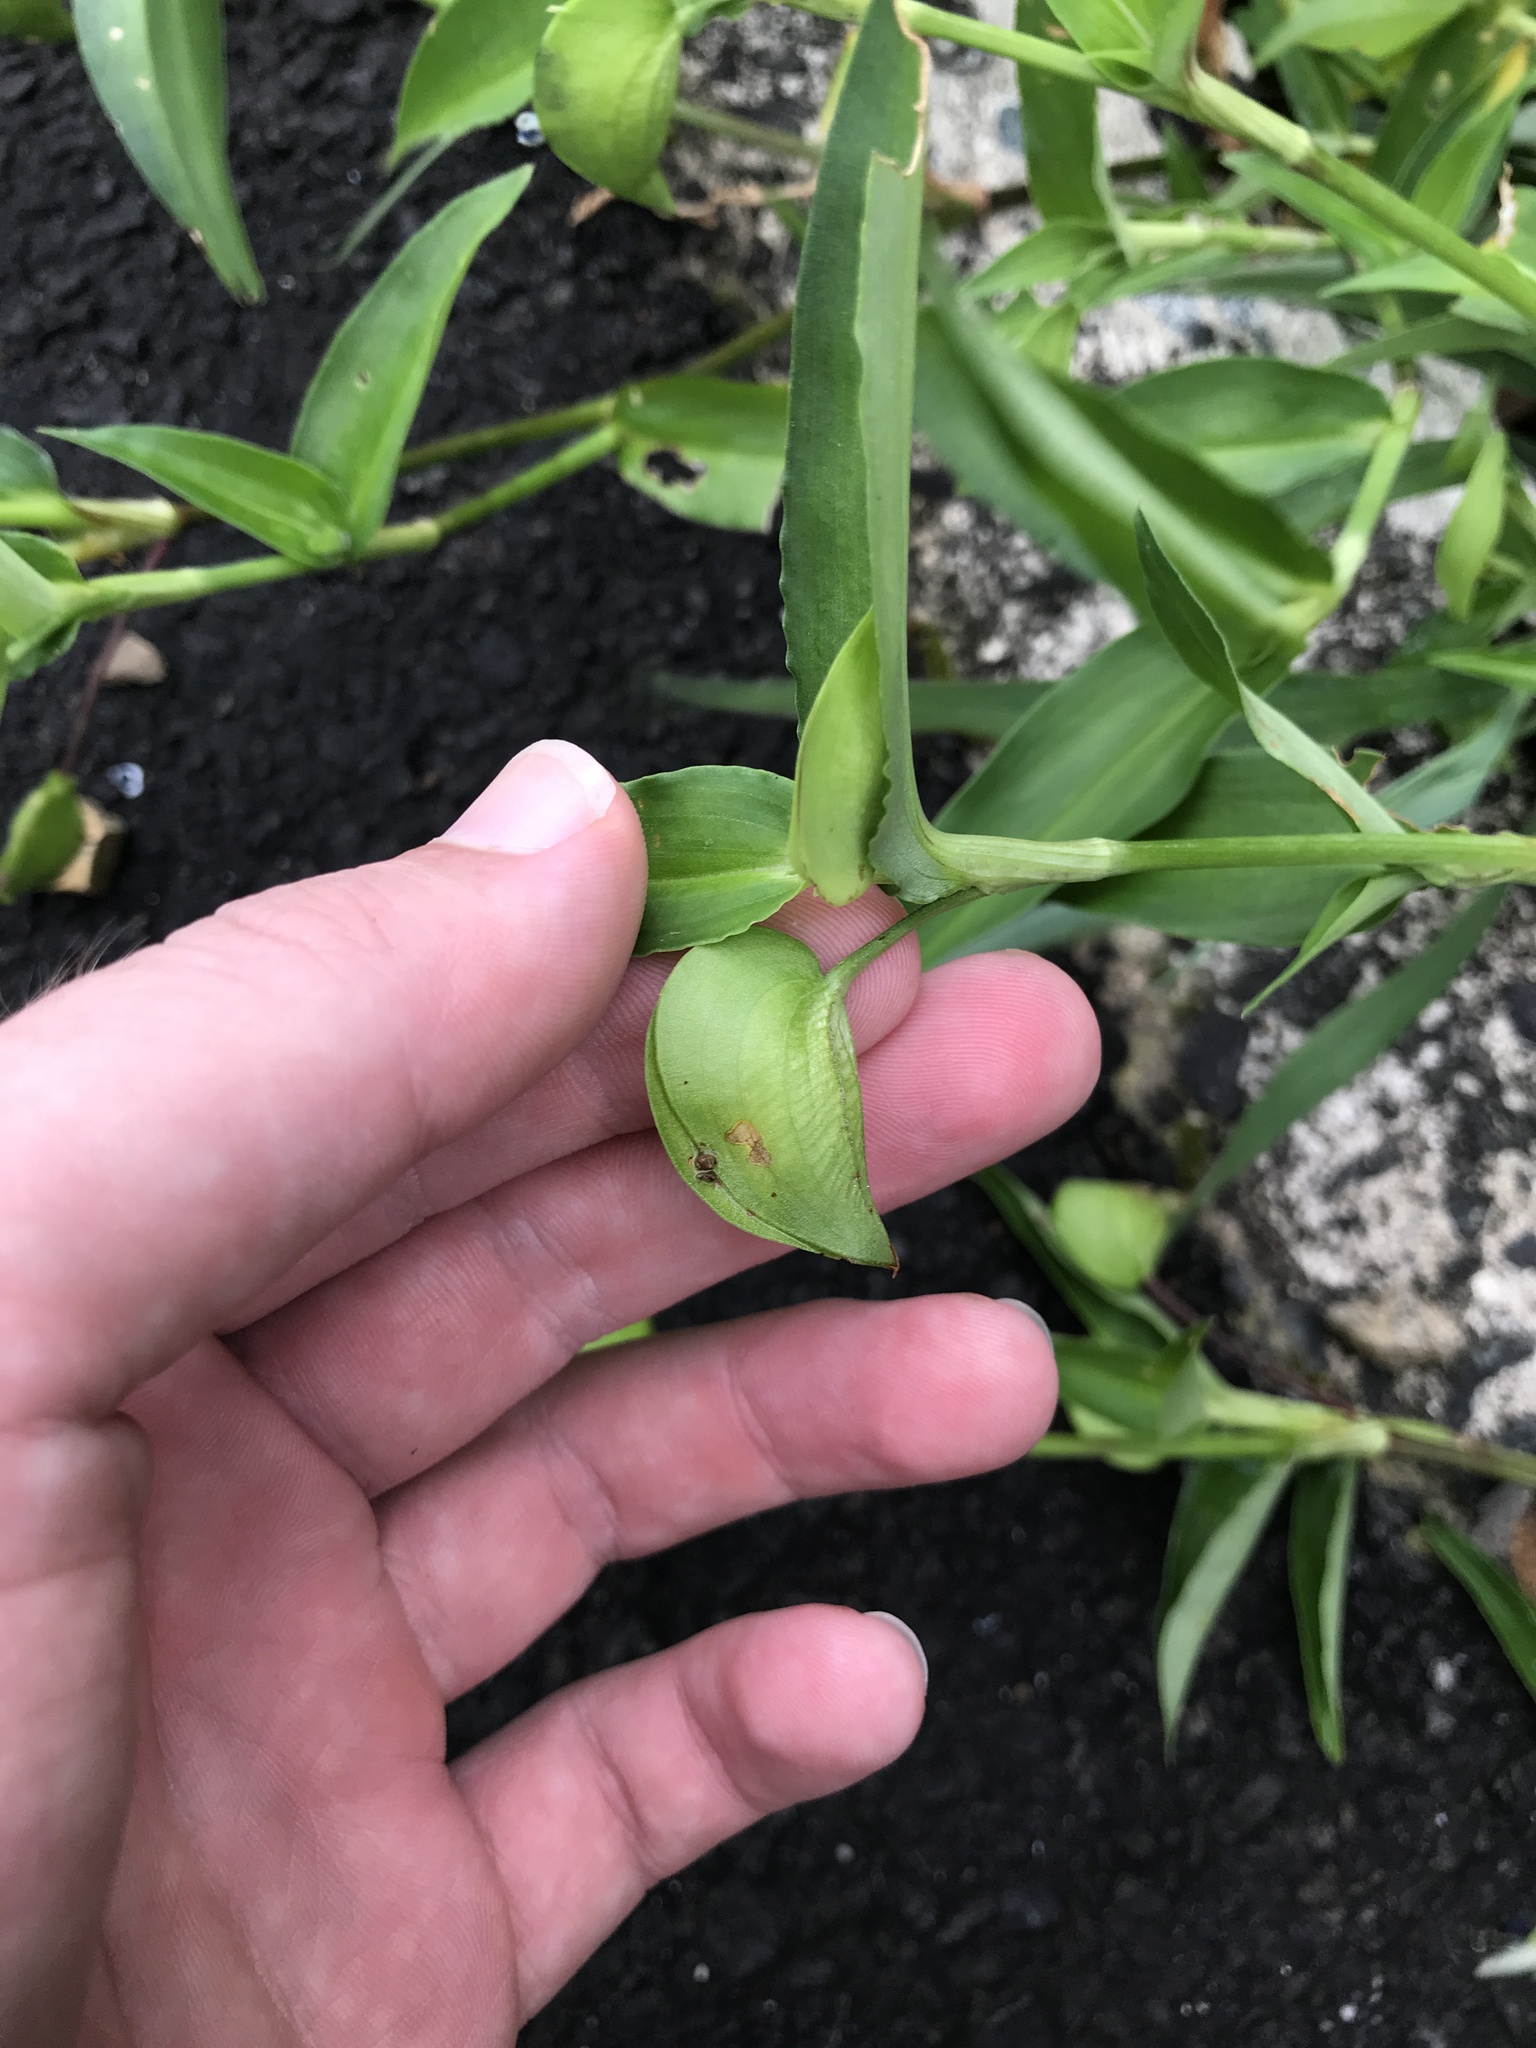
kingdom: Plantae
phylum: Tracheophyta
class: Liliopsida
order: Commelinales
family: Commelinaceae
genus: Commelina
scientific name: Commelina communis
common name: Asiatic dayflower
